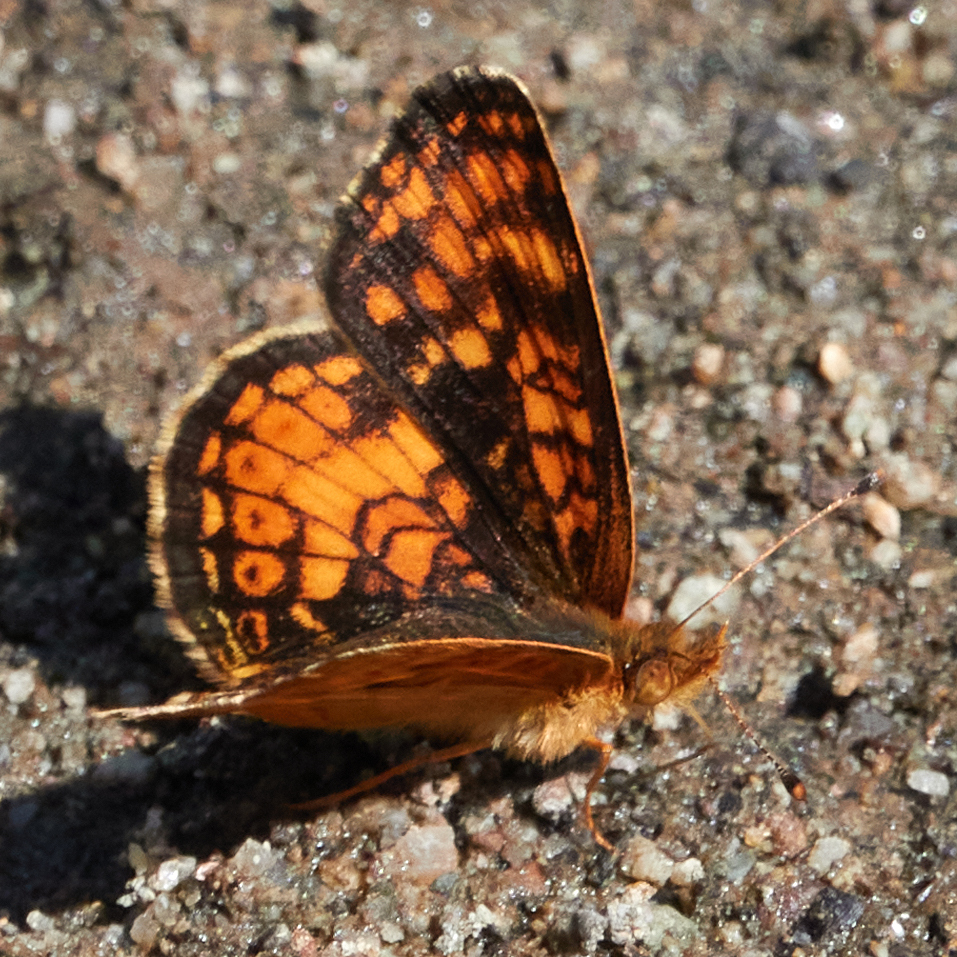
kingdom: Animalia
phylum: Arthropoda
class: Insecta
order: Lepidoptera
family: Nymphalidae
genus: Phyciodes
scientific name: Phyciodes tharos
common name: Pearl crescent
